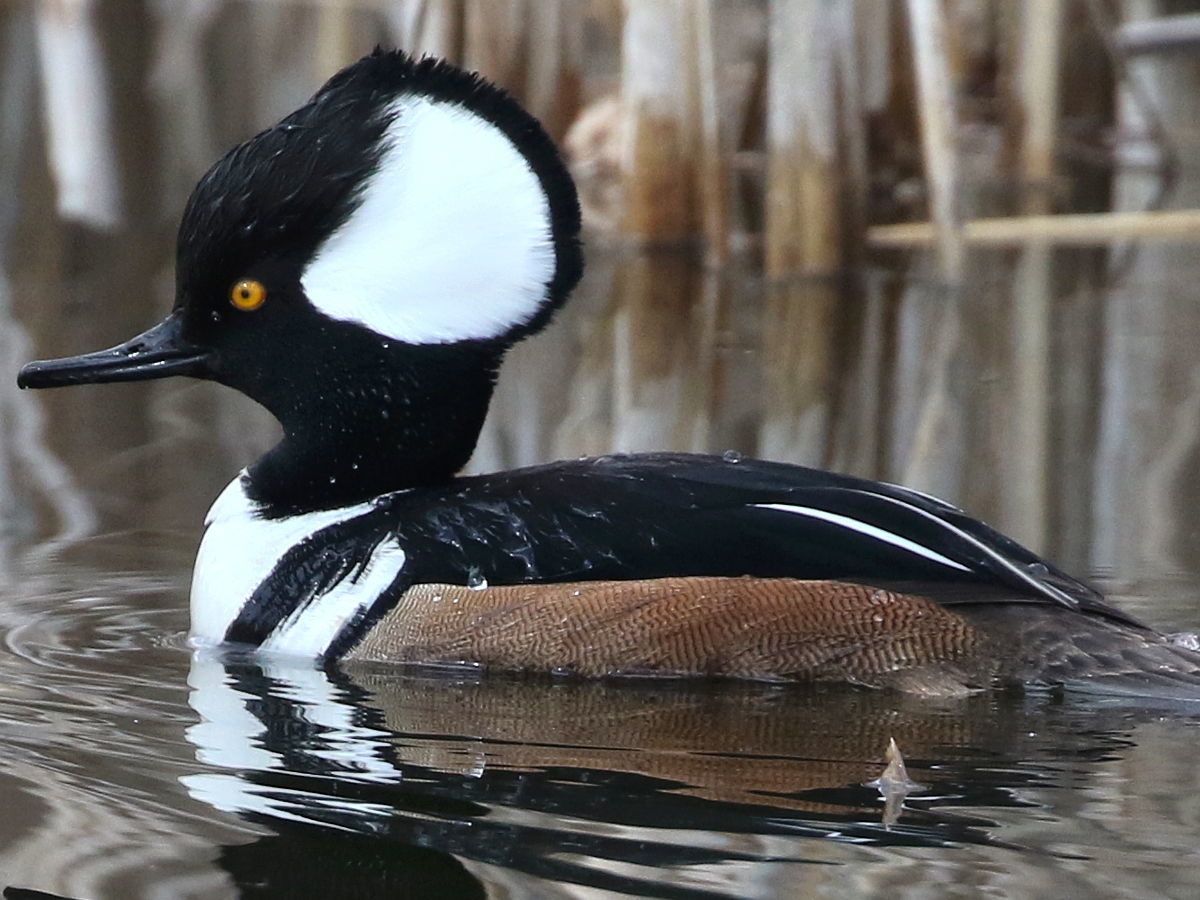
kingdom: Animalia
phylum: Chordata
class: Aves
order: Anseriformes
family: Anatidae
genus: Lophodytes
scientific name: Lophodytes cucullatus
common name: Hooded merganser
